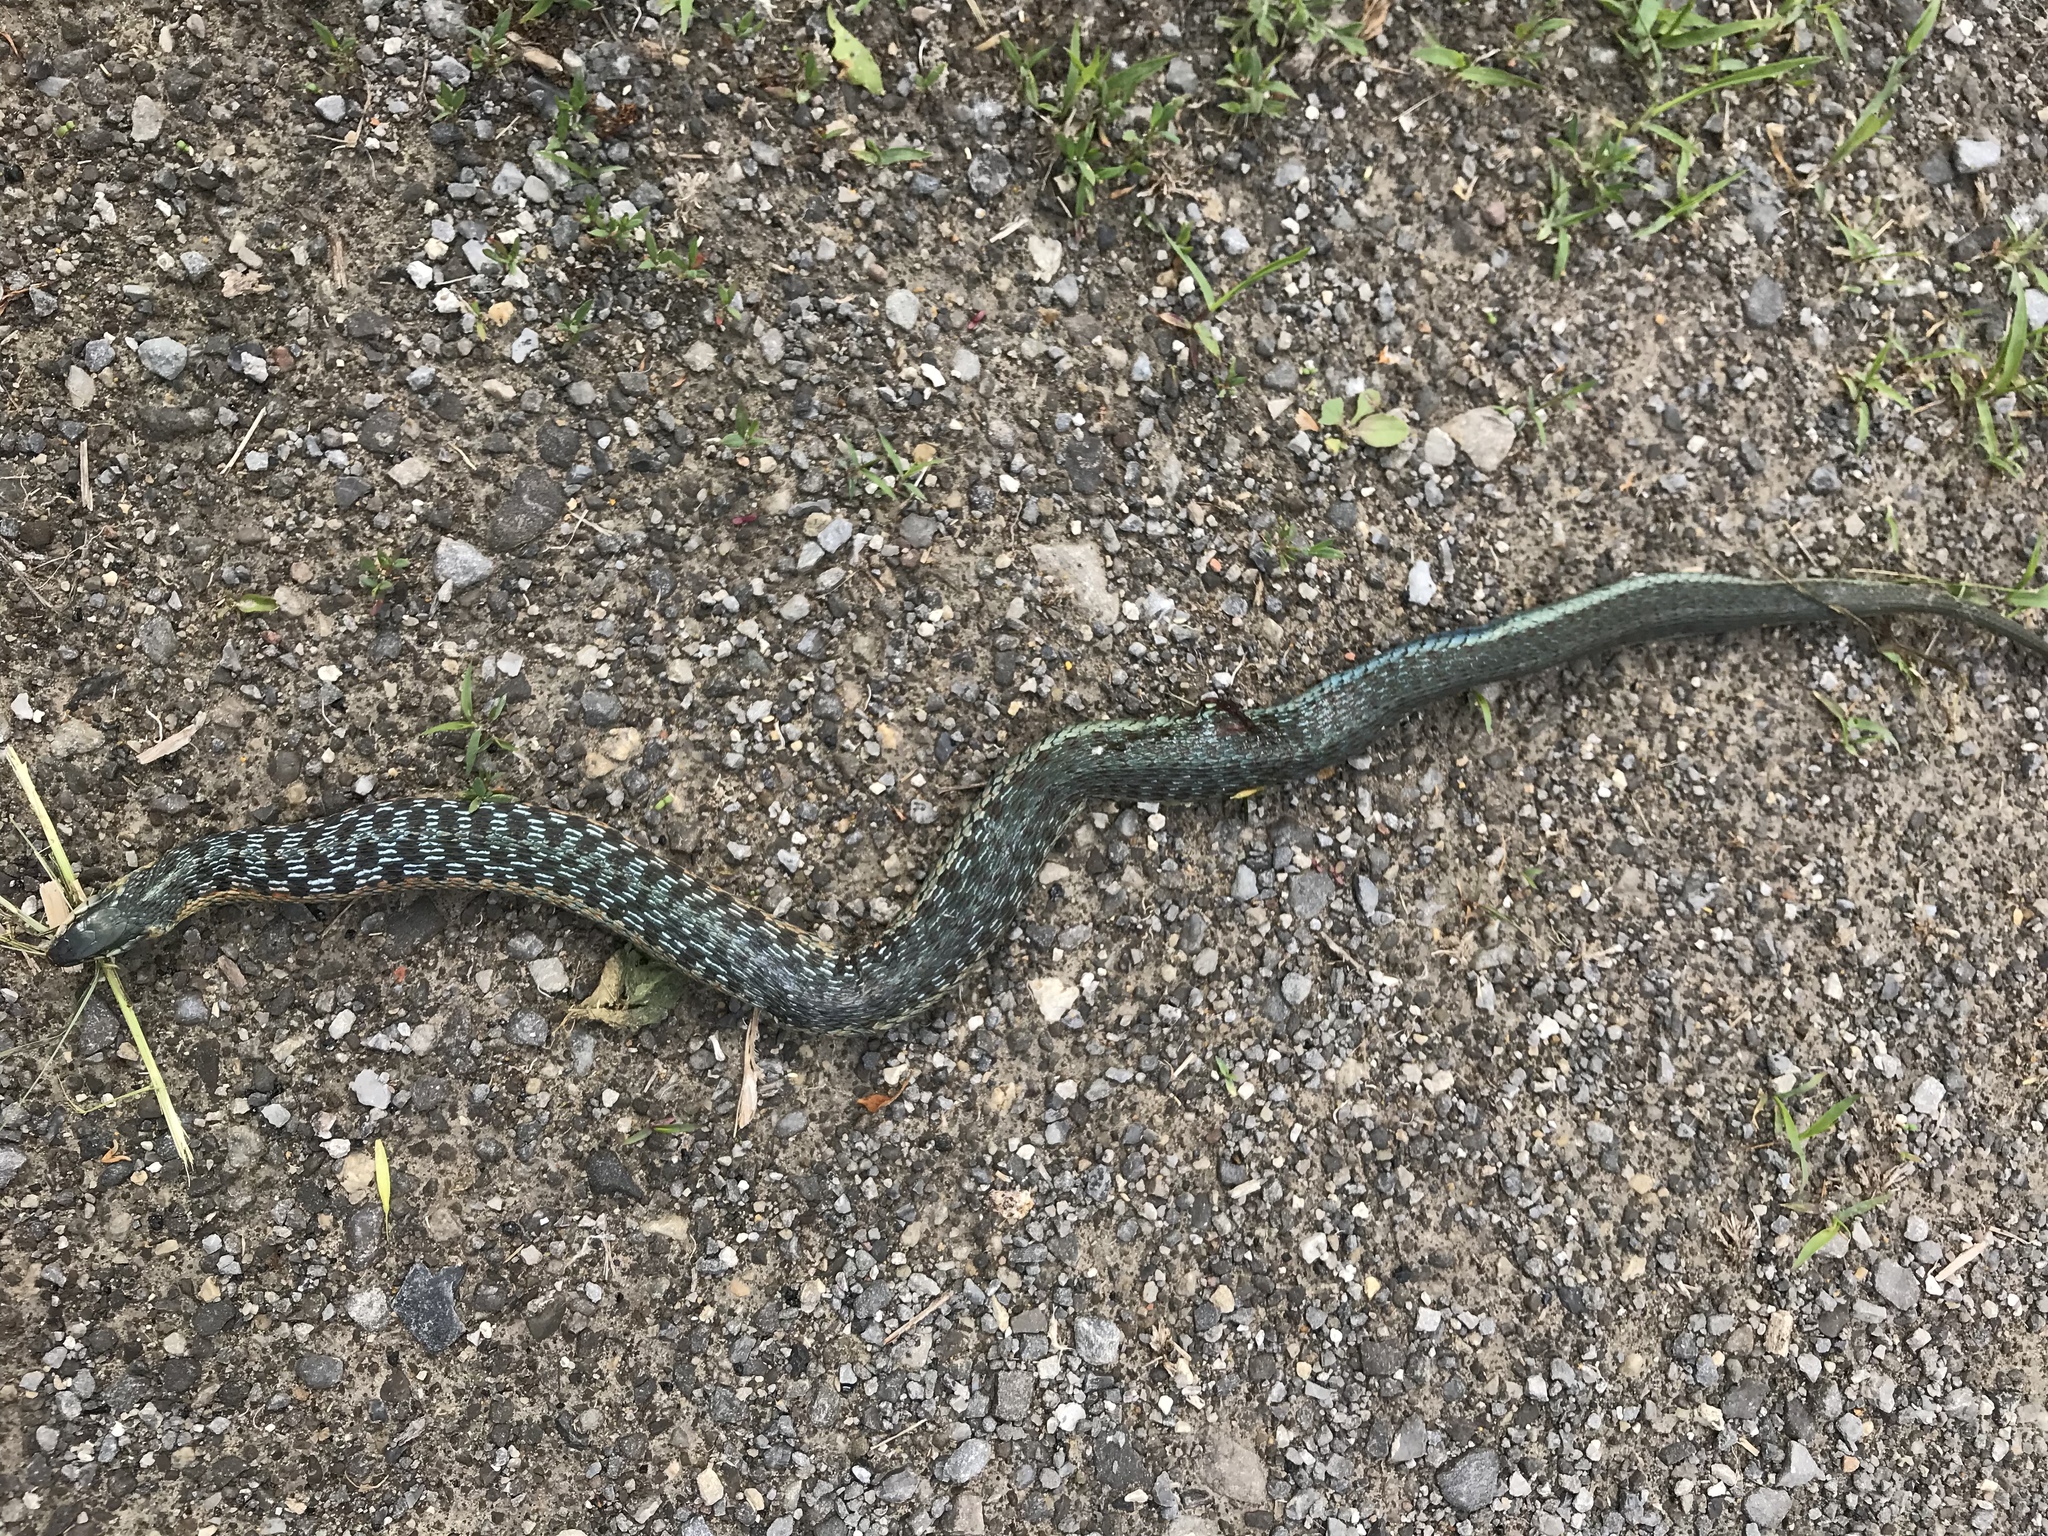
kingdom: Animalia
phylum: Chordata
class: Squamata
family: Colubridae
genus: Thamnophis
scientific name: Thamnophis sirtalis
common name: Common garter snake
